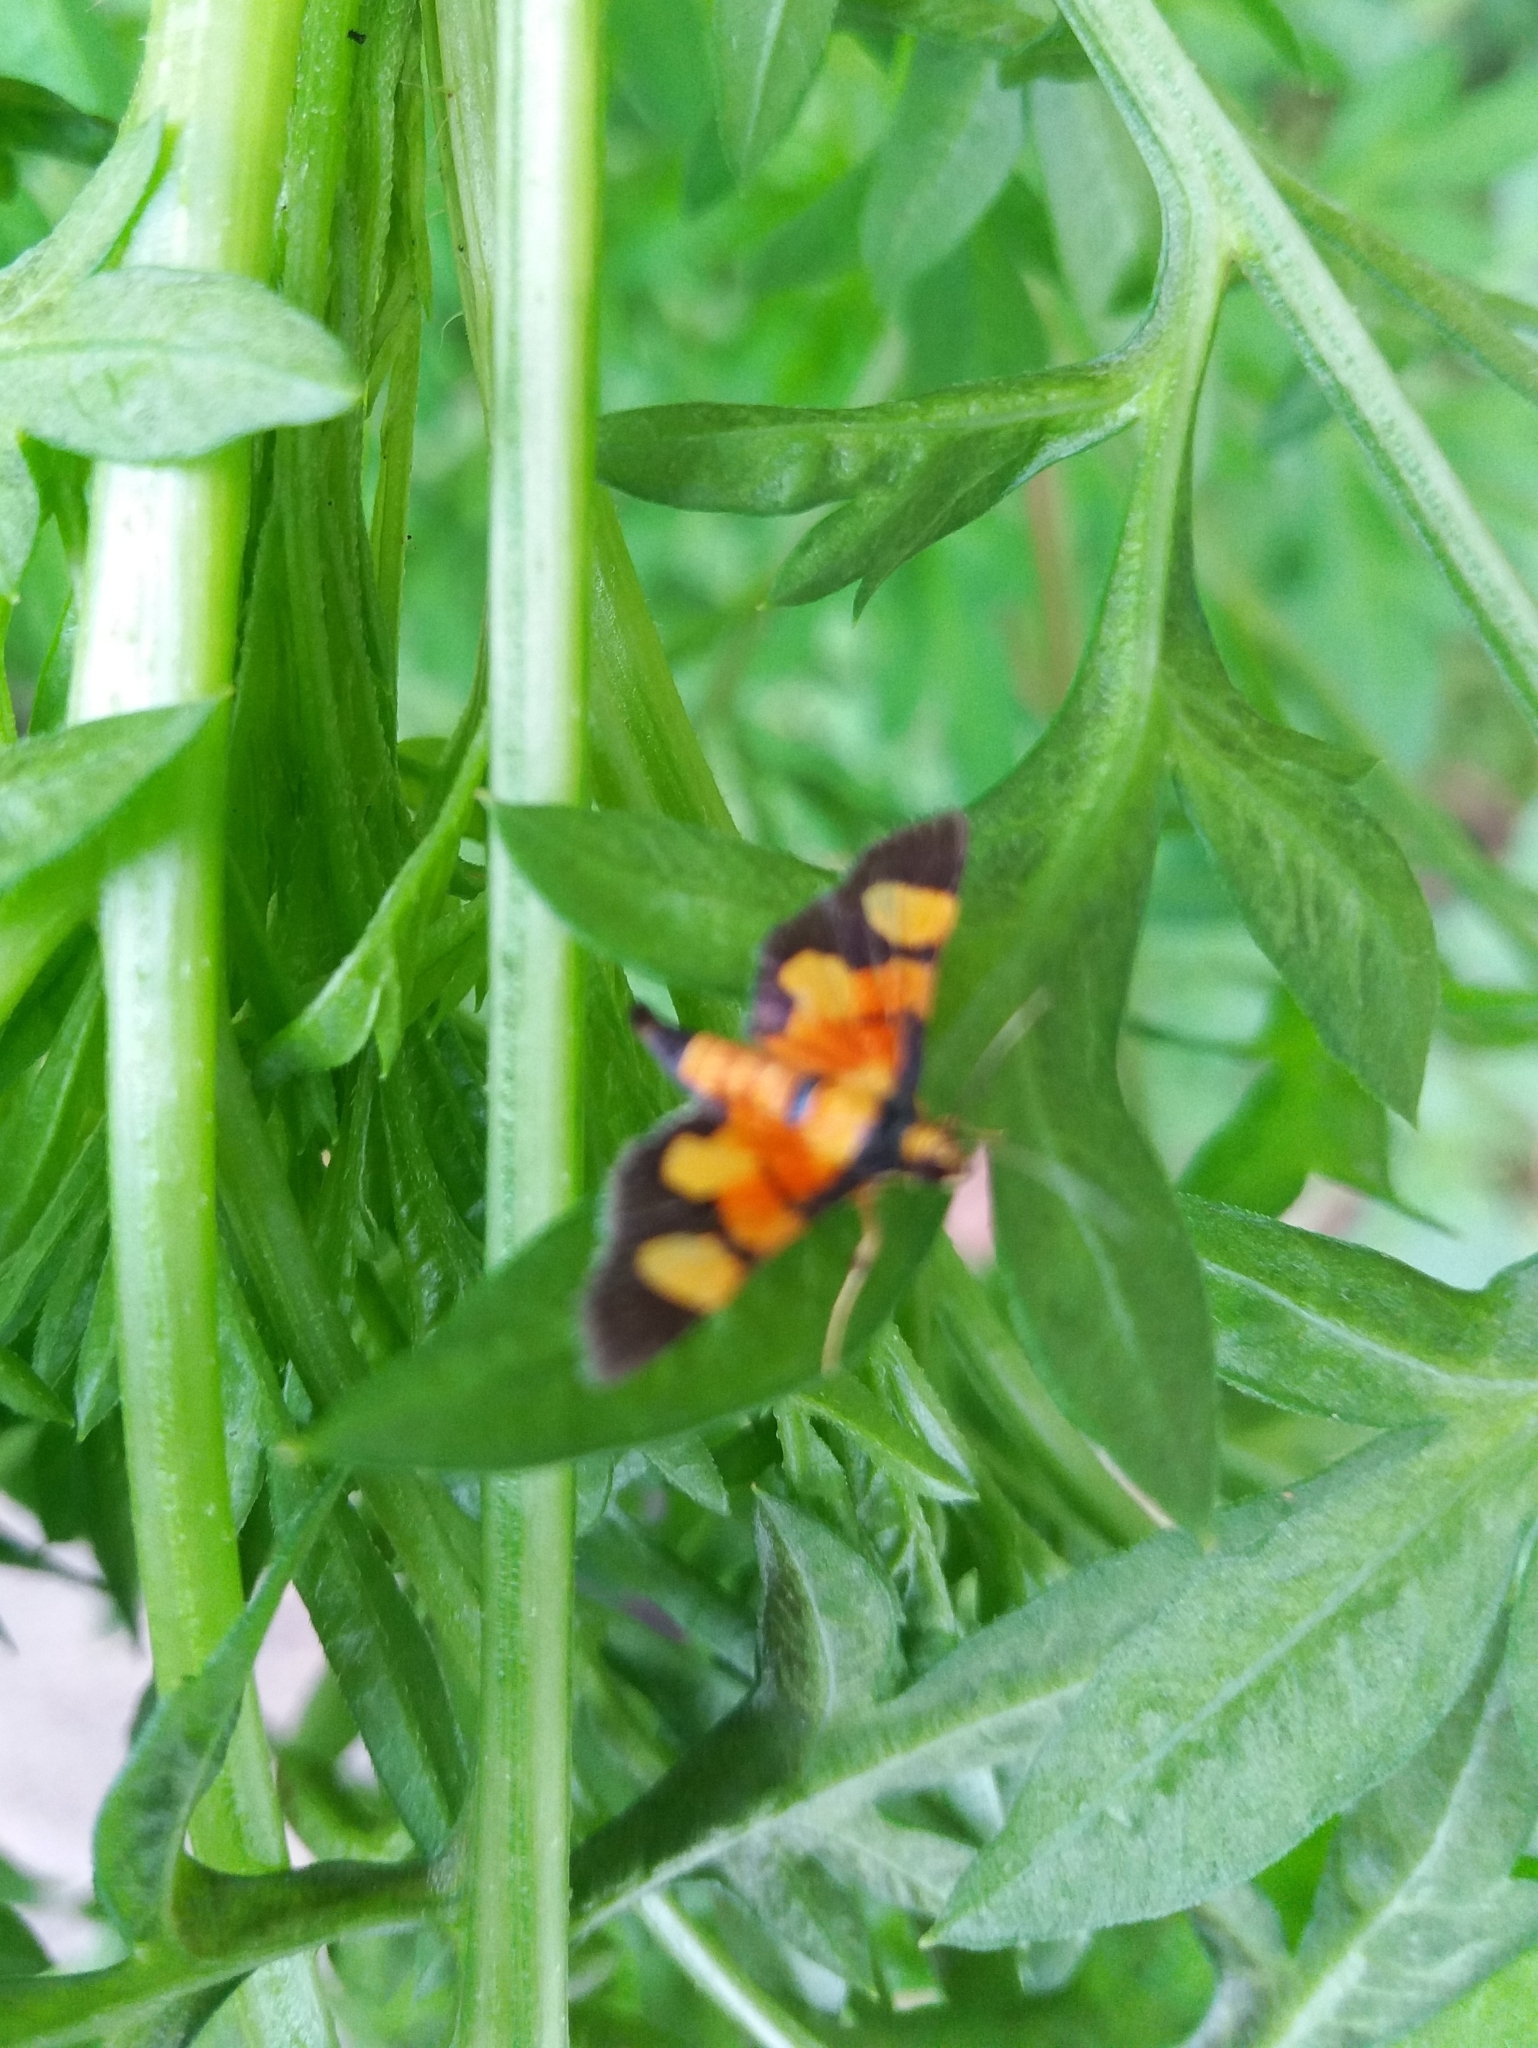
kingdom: Animalia
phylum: Arthropoda
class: Insecta
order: Lepidoptera
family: Crambidae
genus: Aethaloessa
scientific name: Aethaloessa calidalis
